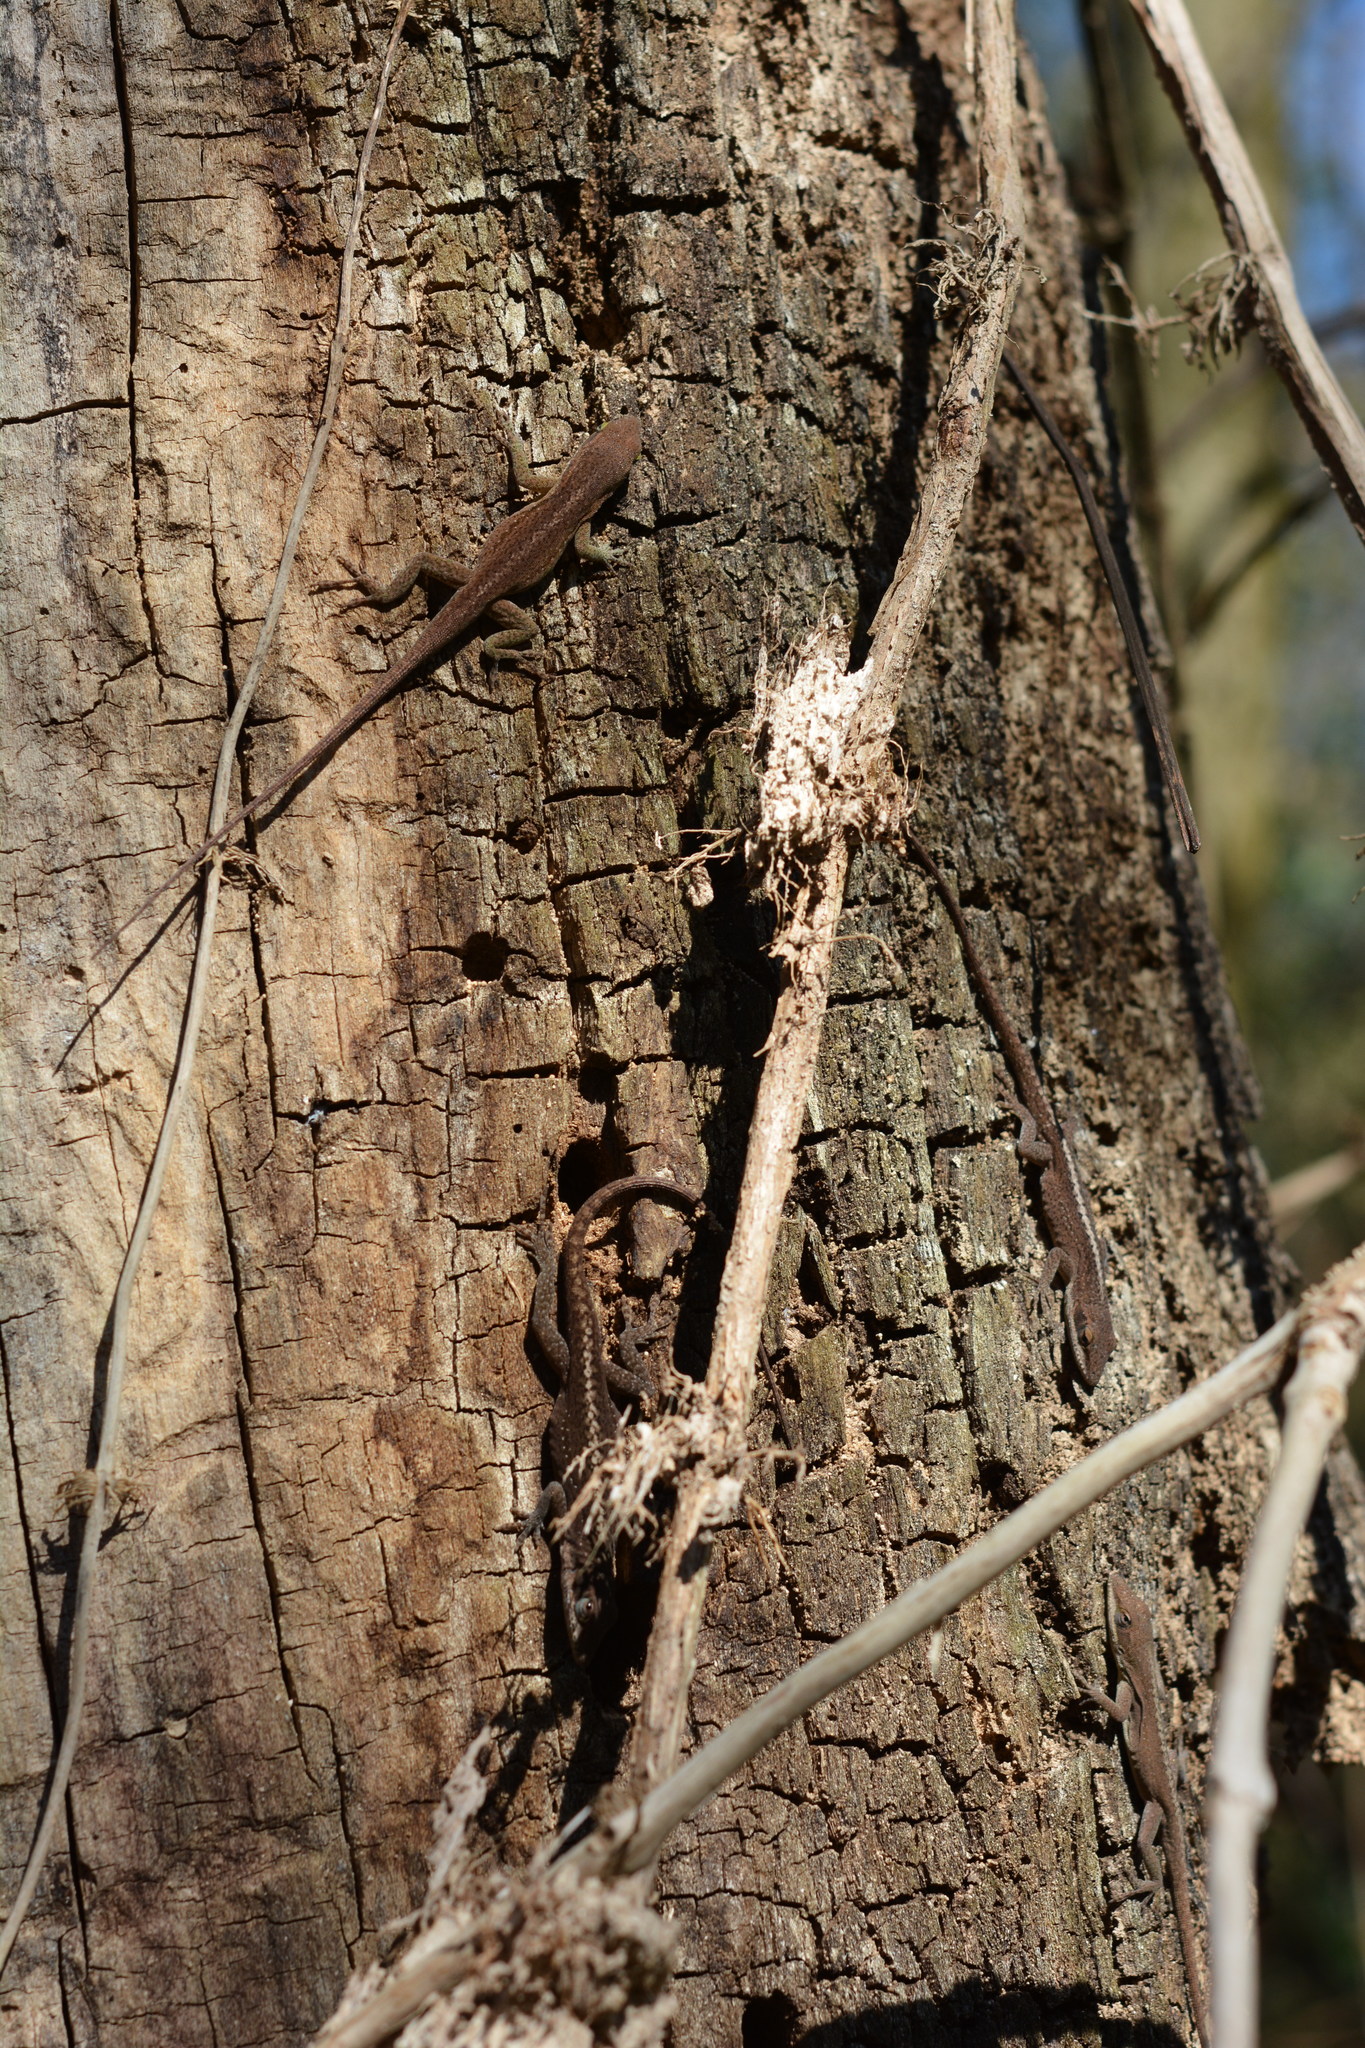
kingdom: Animalia
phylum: Chordata
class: Squamata
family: Dactyloidae
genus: Anolis
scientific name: Anolis carolinensis
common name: Green anole
